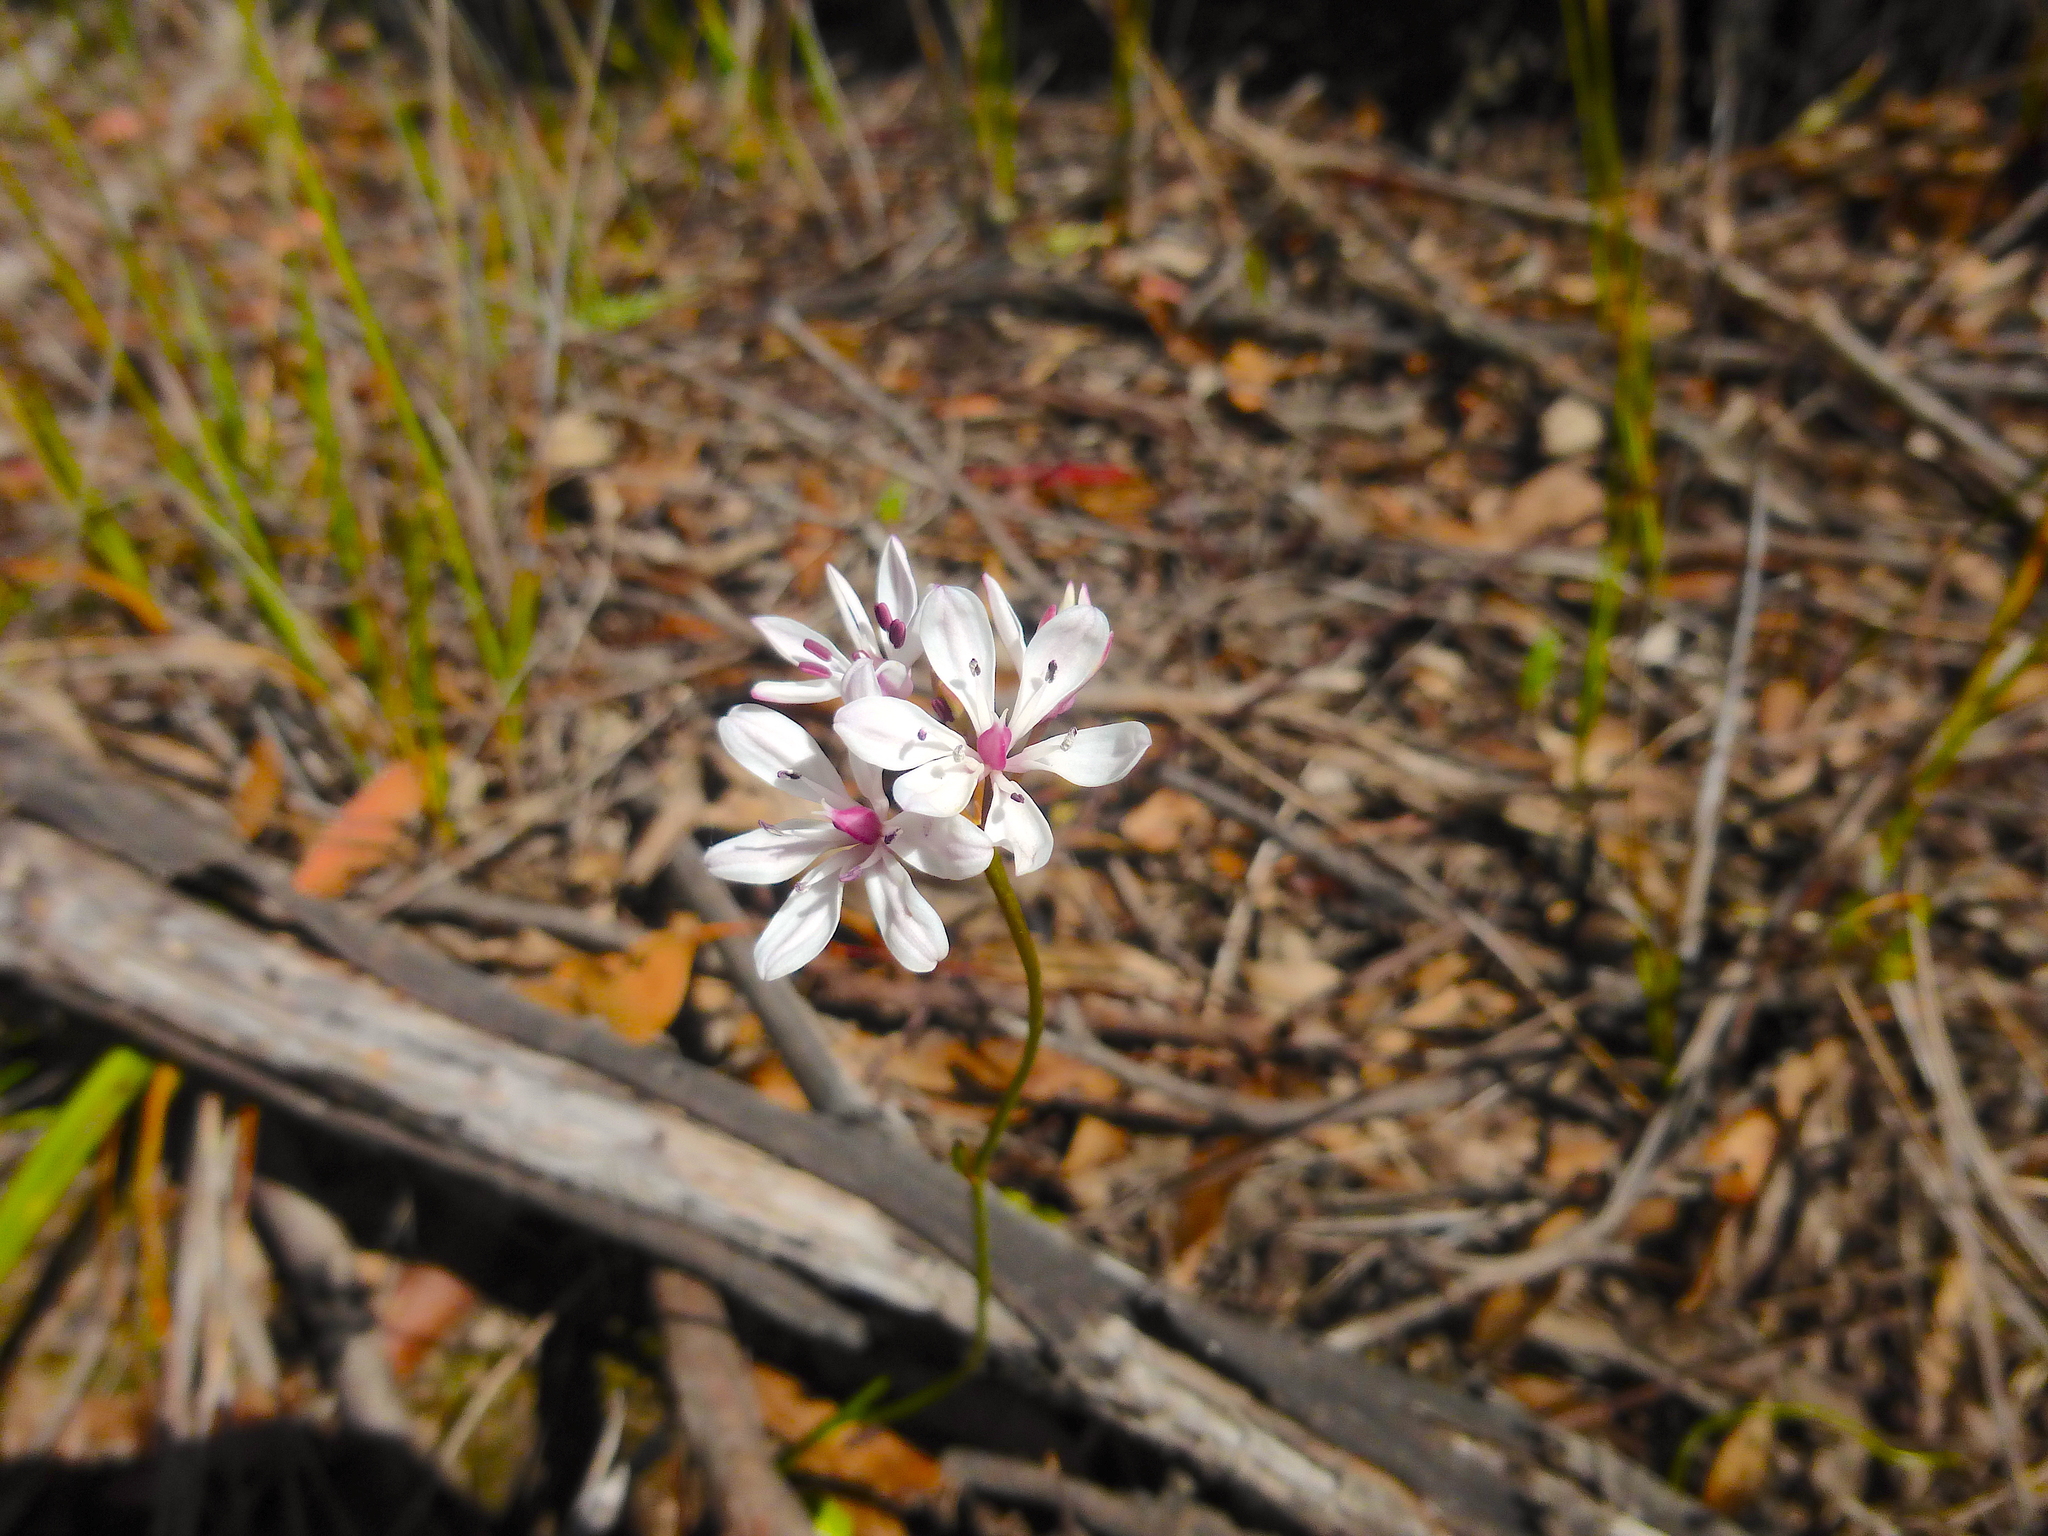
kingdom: Plantae
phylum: Tracheophyta
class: Liliopsida
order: Liliales
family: Colchicaceae
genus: Burchardia
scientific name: Burchardia umbellata
